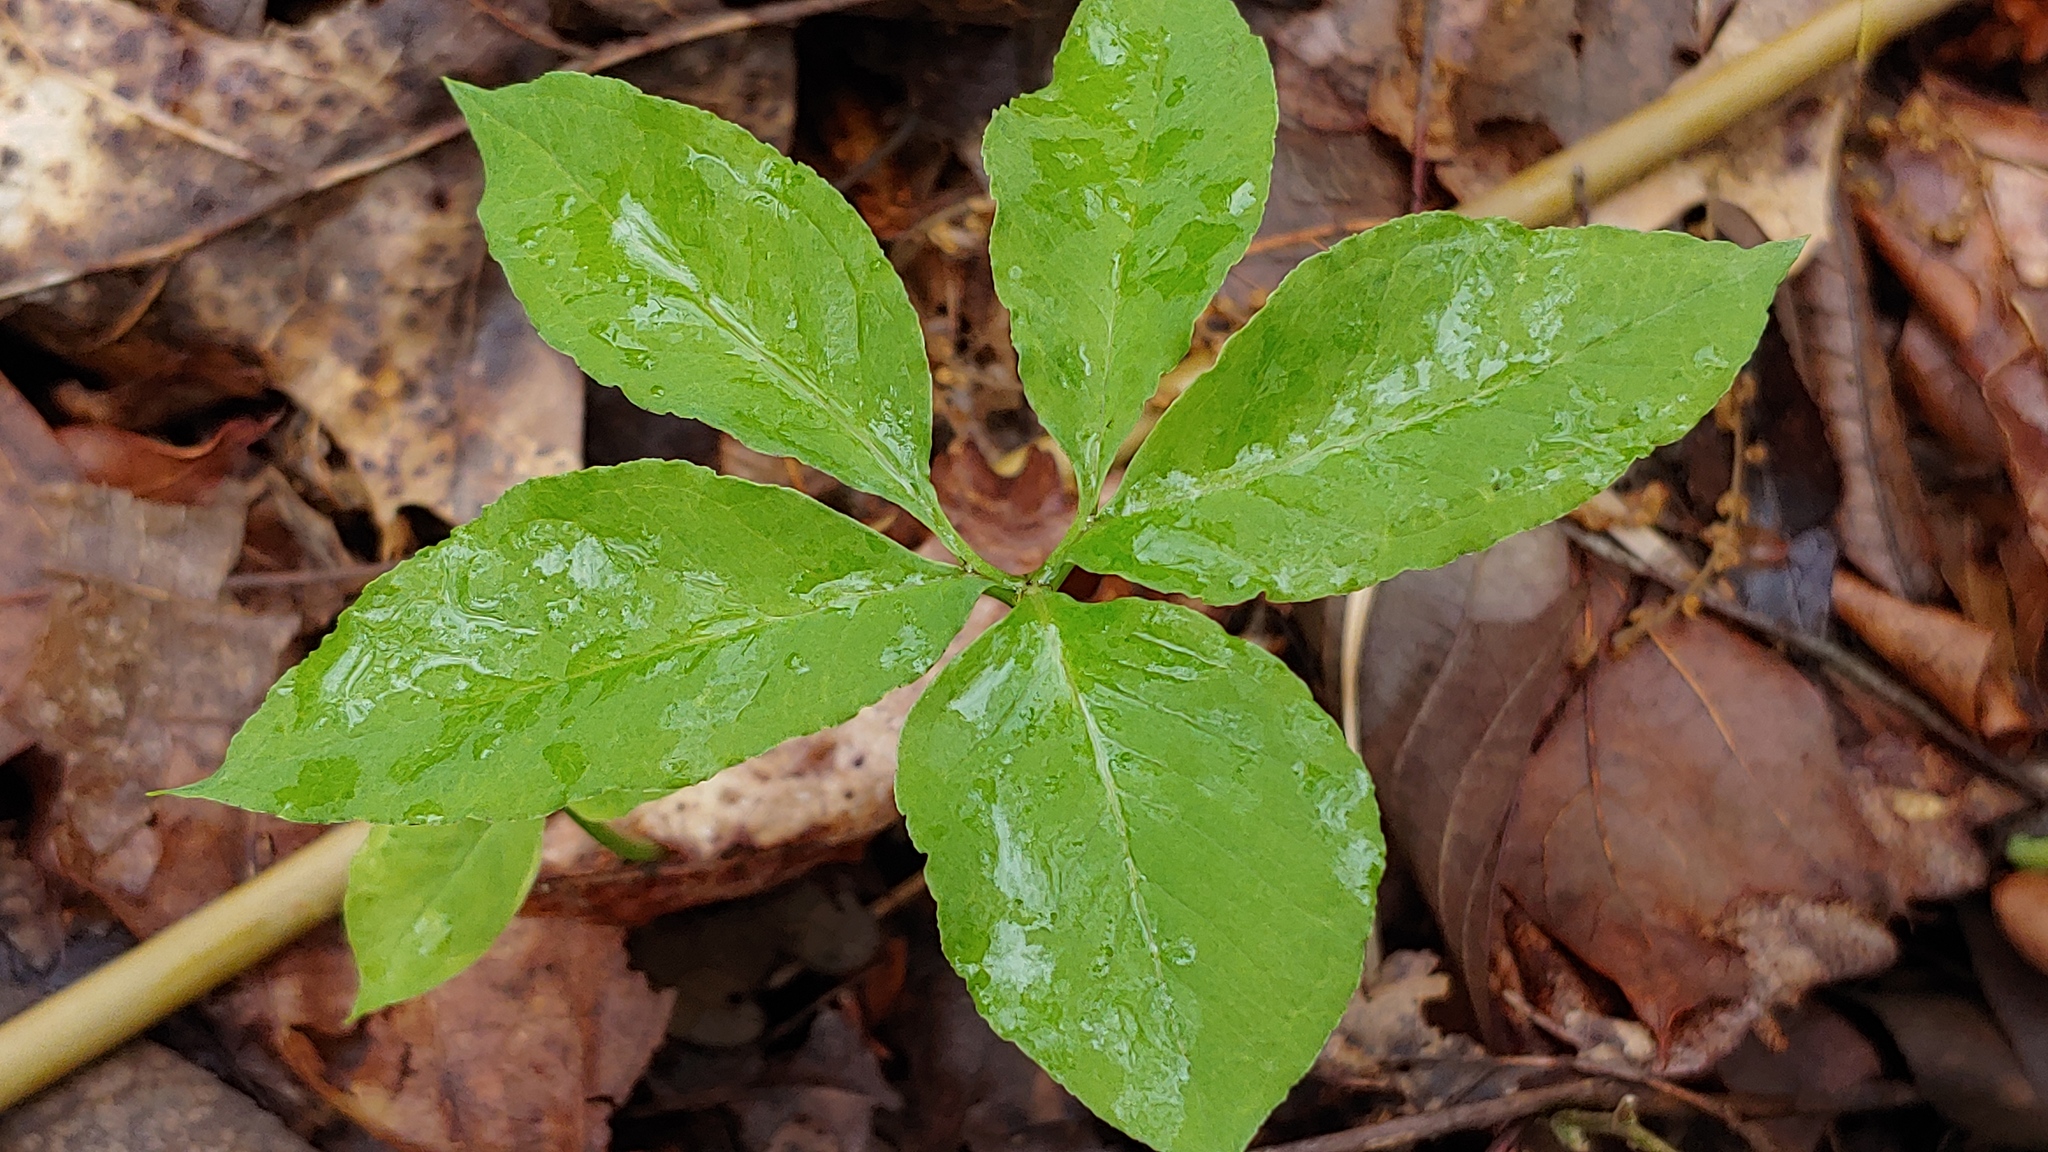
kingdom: Plantae
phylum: Tracheophyta
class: Liliopsida
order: Alismatales
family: Araceae
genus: Arisaema
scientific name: Arisaema dracontium
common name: Dragon-arum
